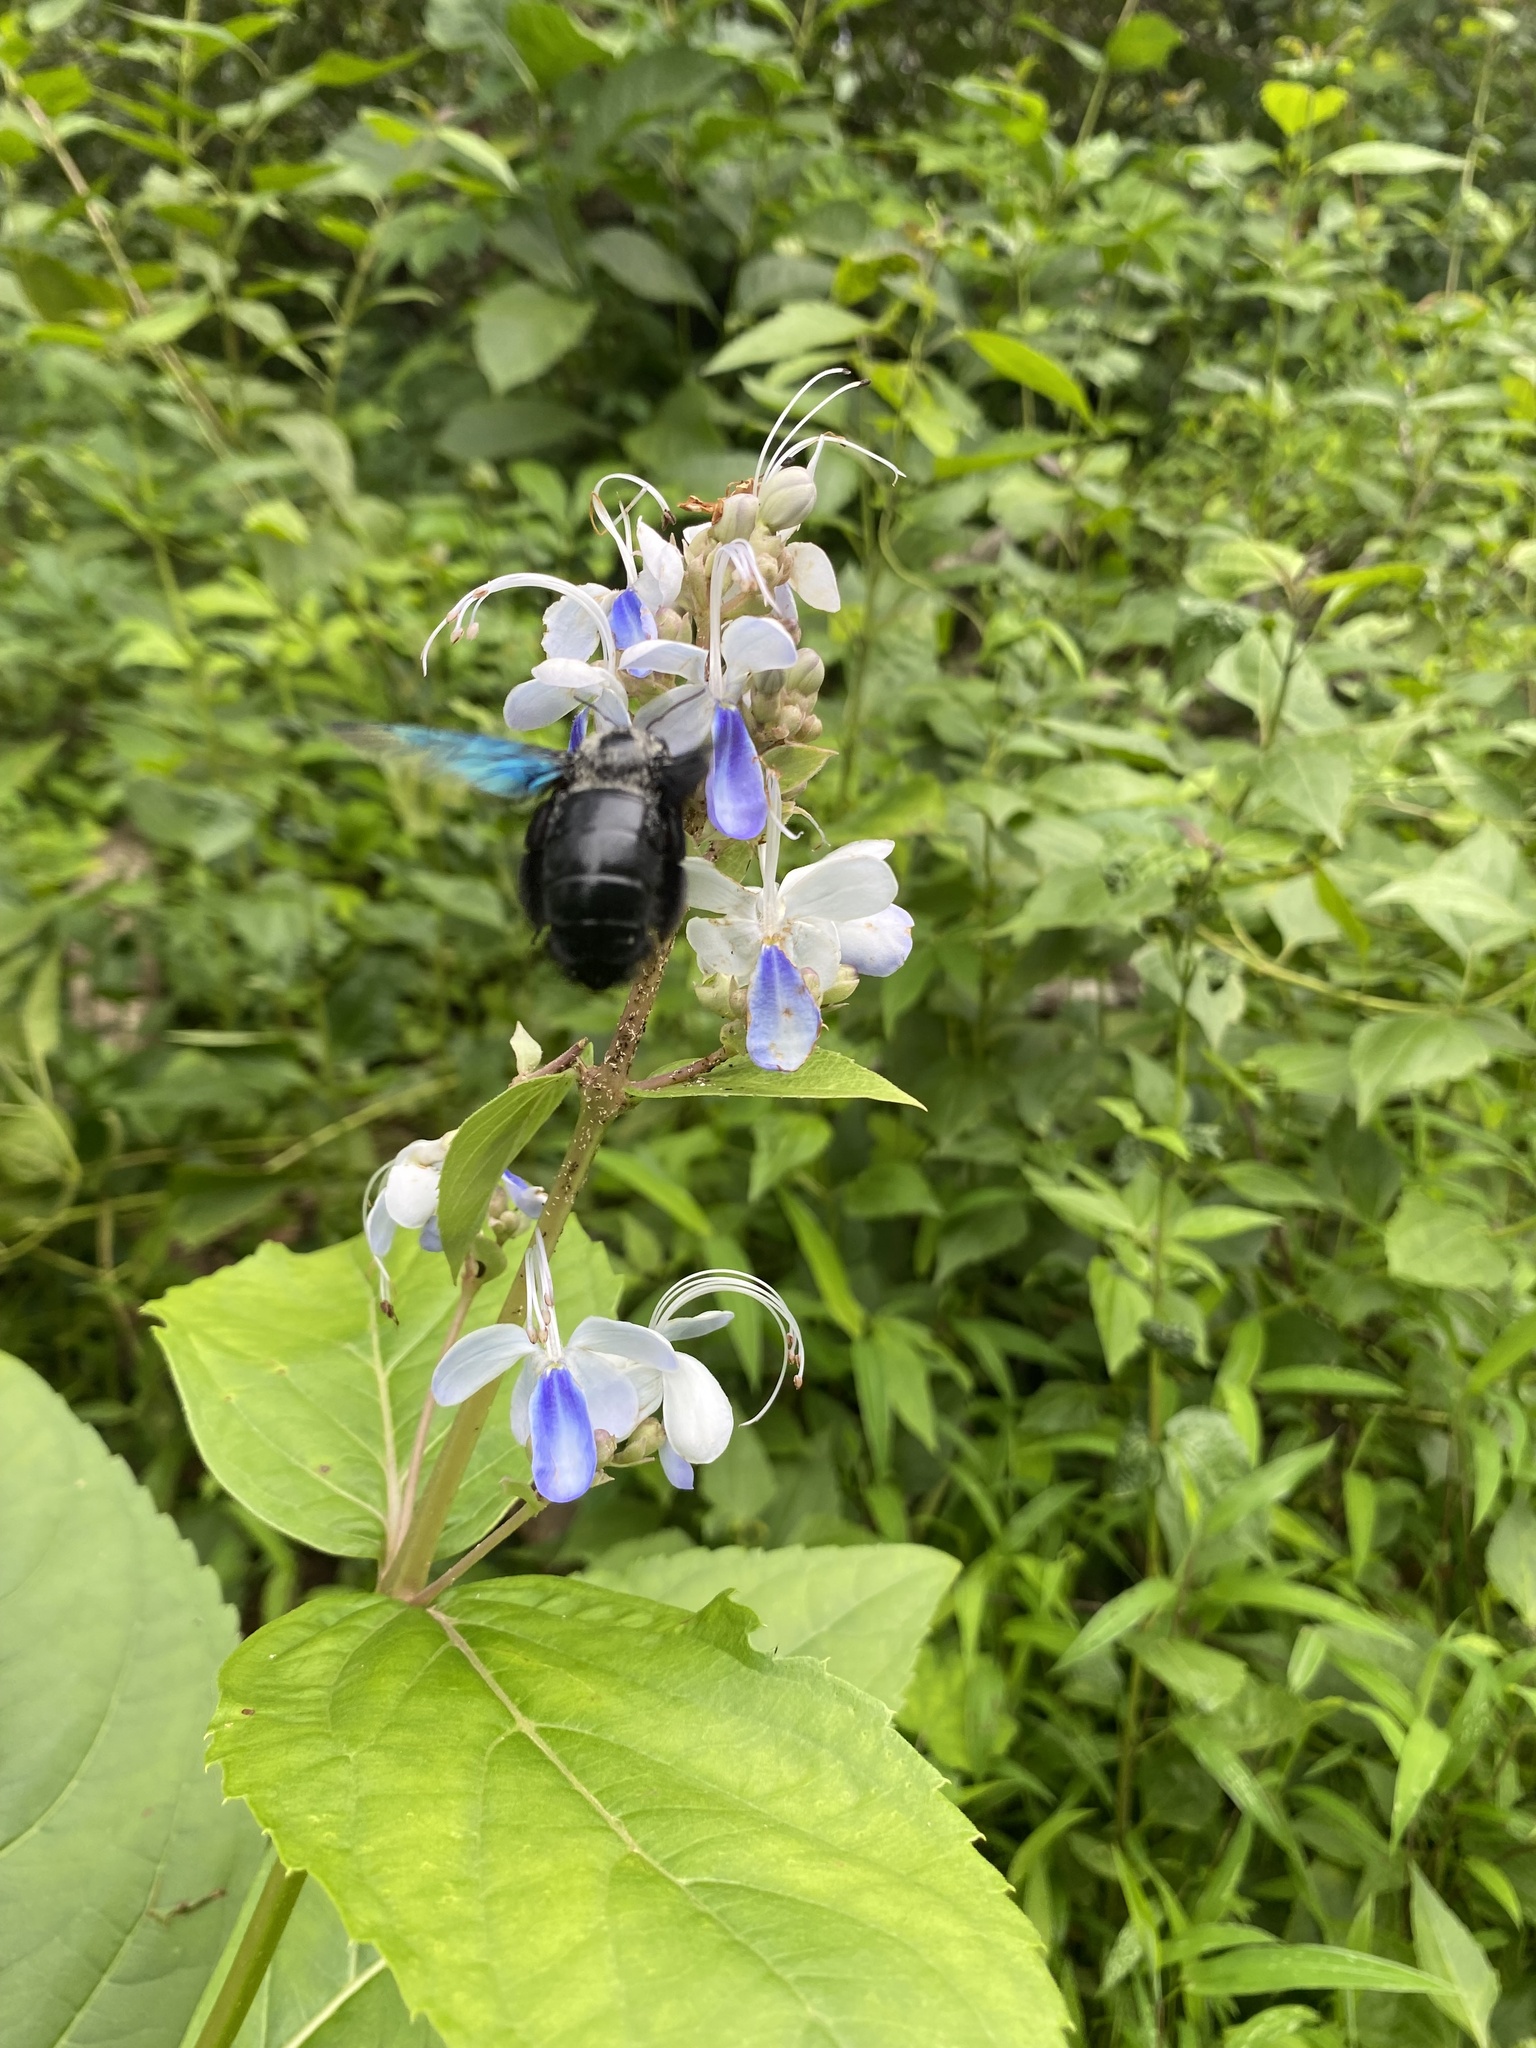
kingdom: Animalia
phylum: Arthropoda
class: Insecta
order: Hymenoptera
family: Apidae
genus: Xylocopa
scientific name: Xylocopa auripennis
